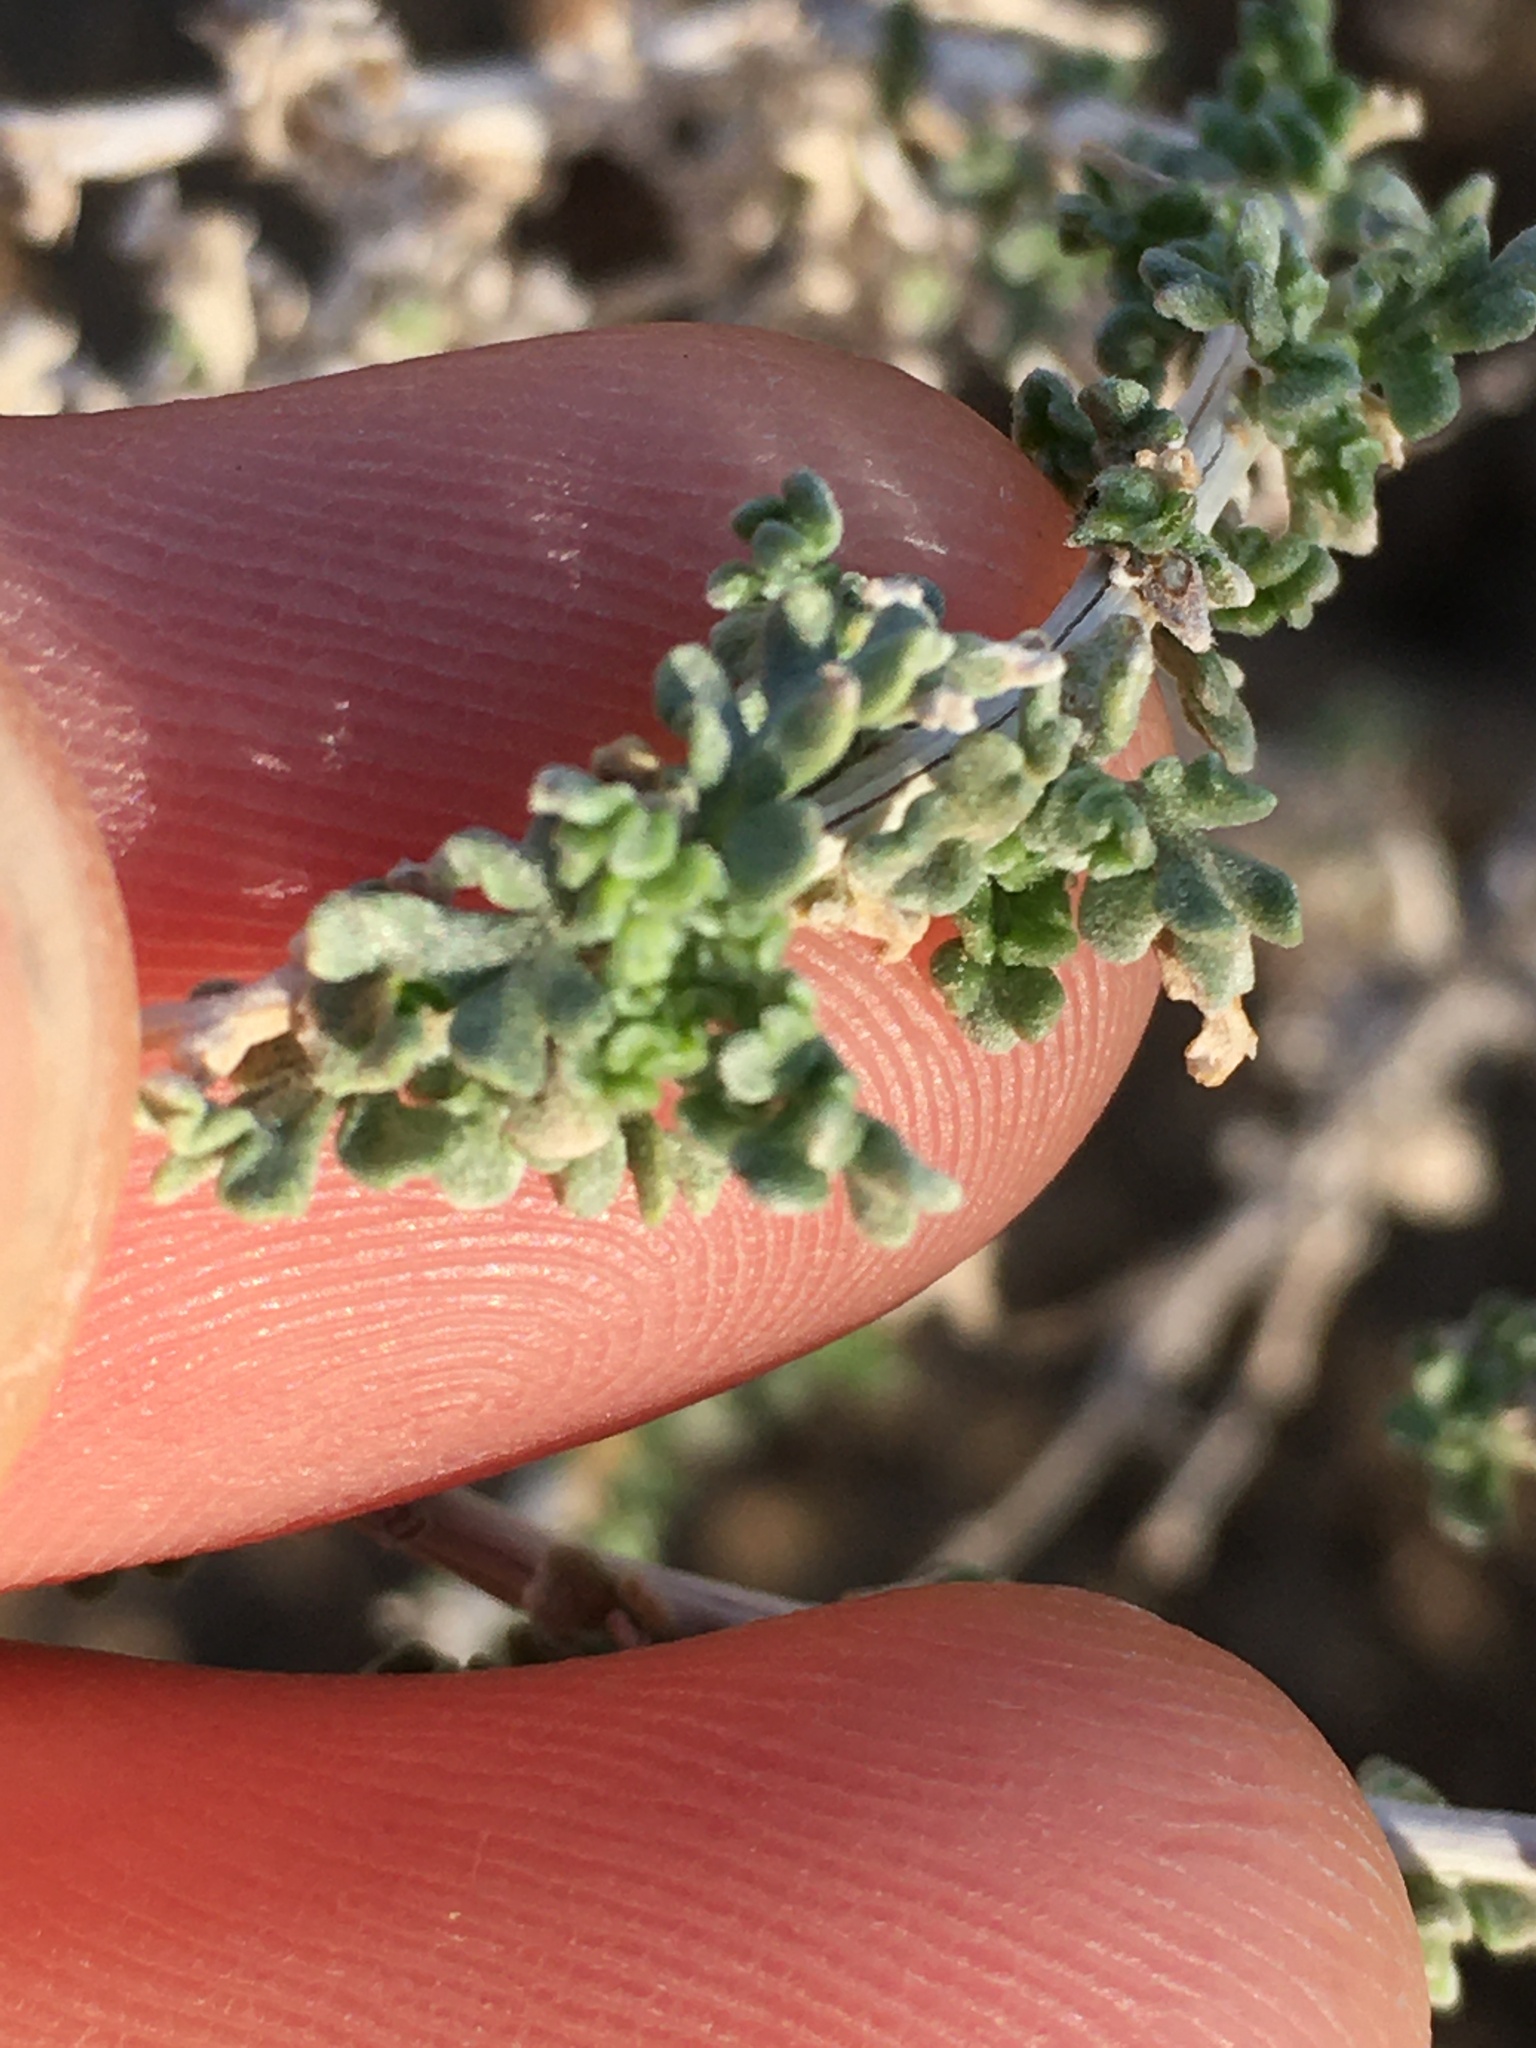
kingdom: Plantae
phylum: Tracheophyta
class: Magnoliopsida
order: Asterales
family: Asteraceae
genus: Ambrosia
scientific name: Ambrosia dumosa
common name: Bur-sage
